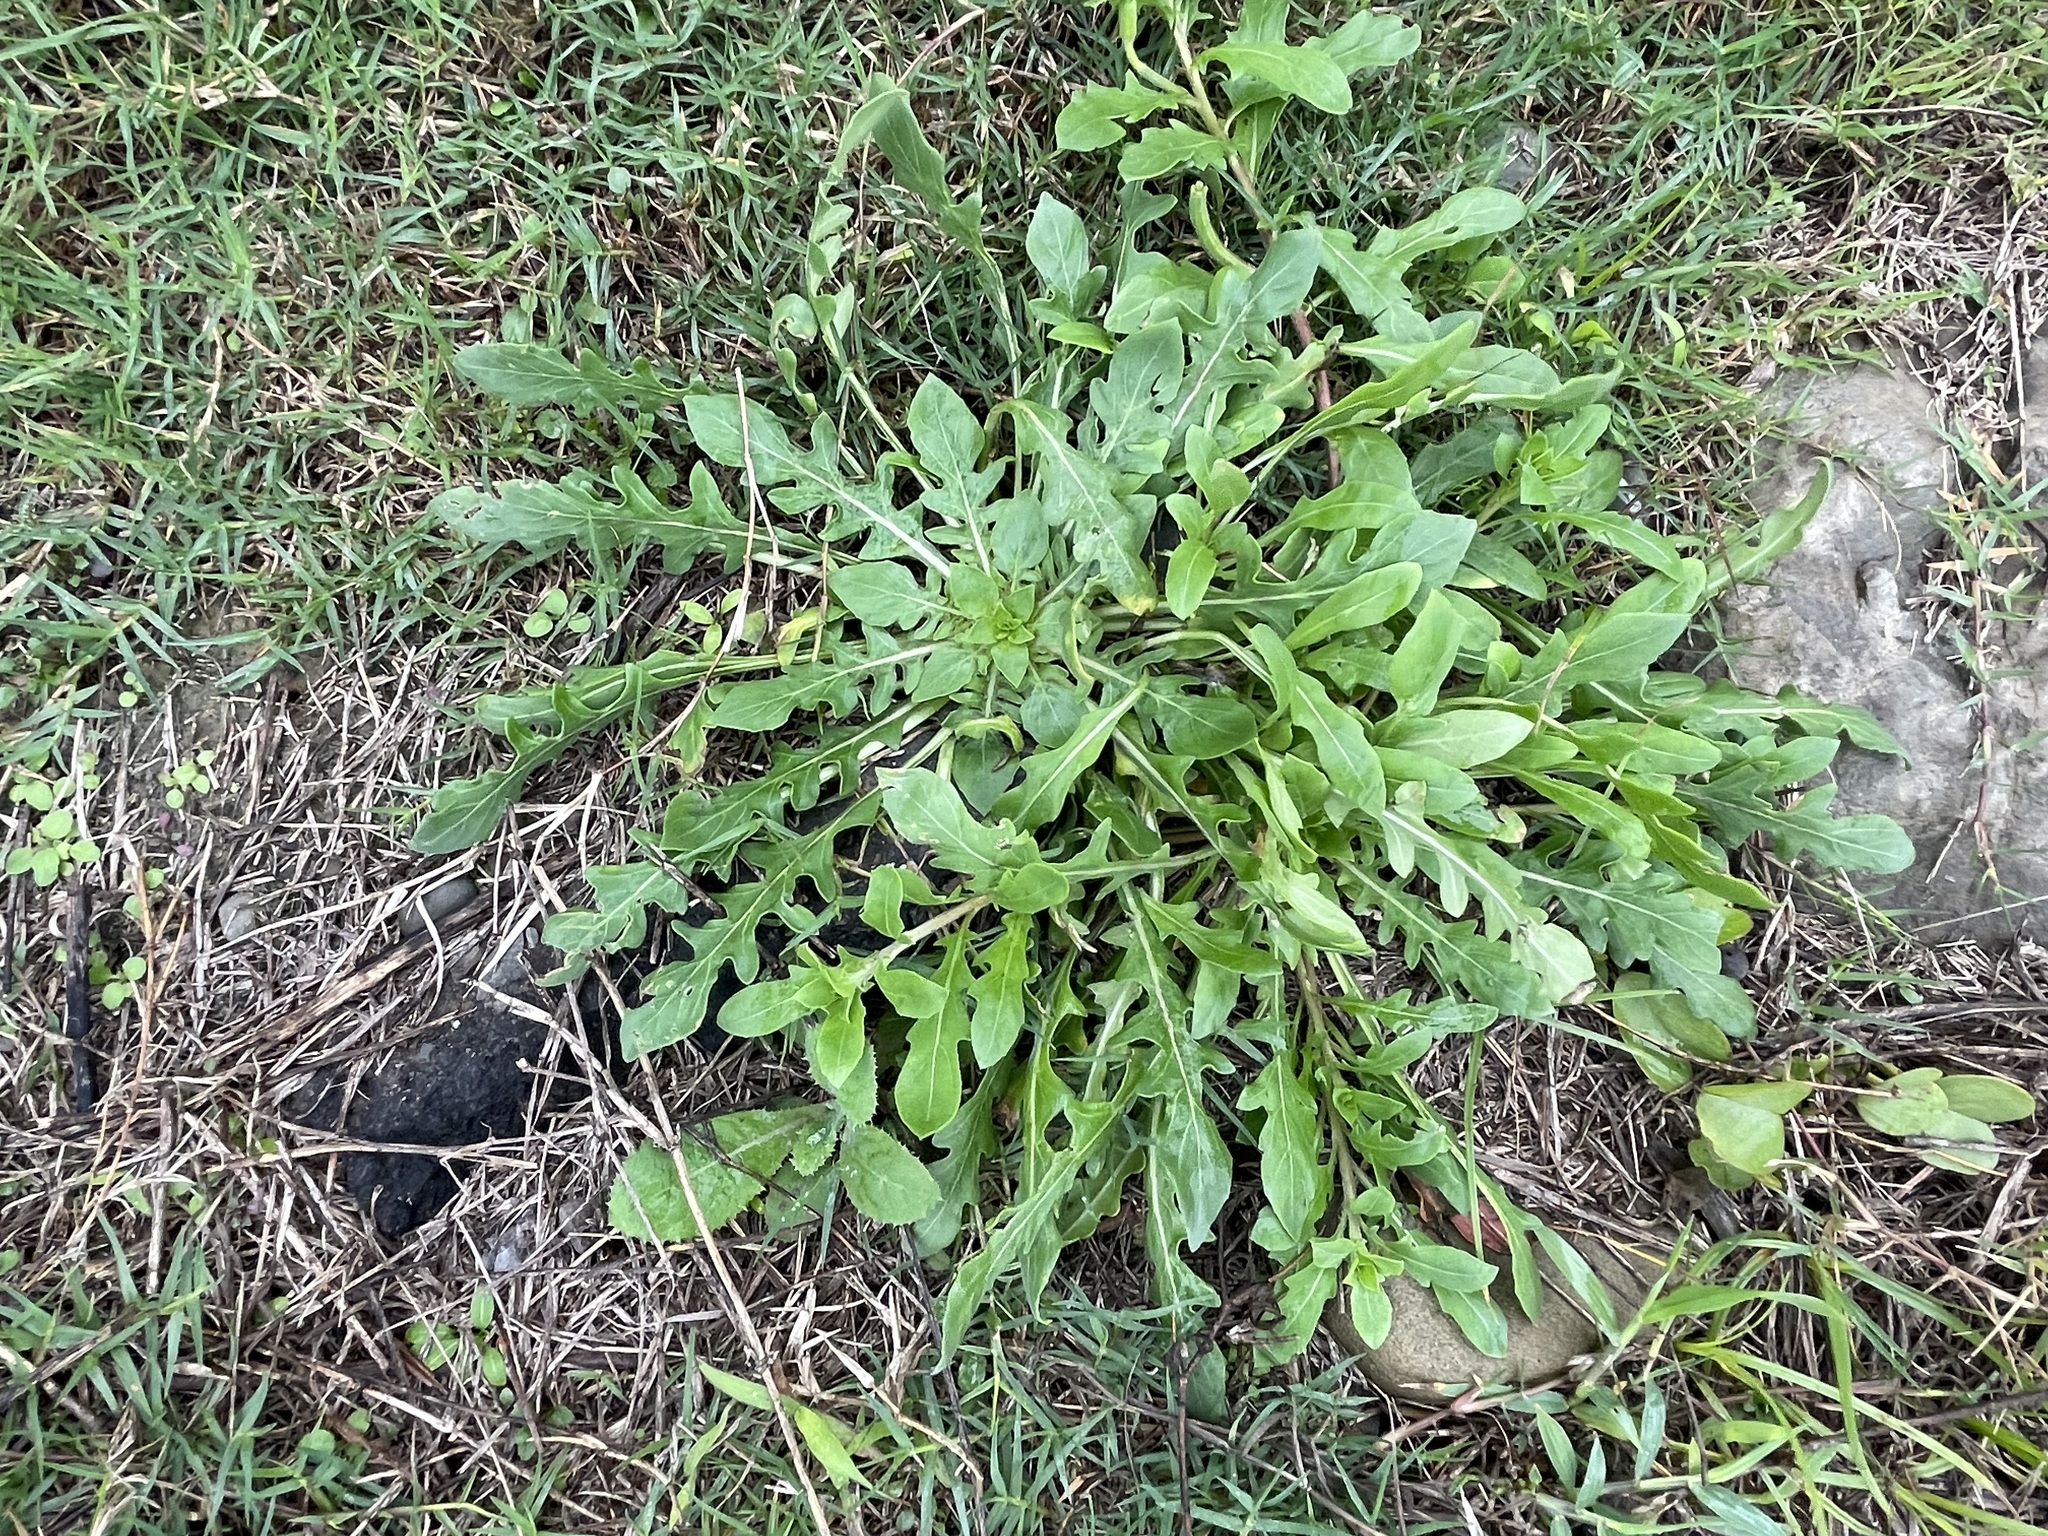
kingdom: Plantae
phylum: Tracheophyta
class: Magnoliopsida
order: Myrtales
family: Onagraceae
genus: Oenothera
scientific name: Oenothera laciniata
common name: Cut-leaved evening-primrose
